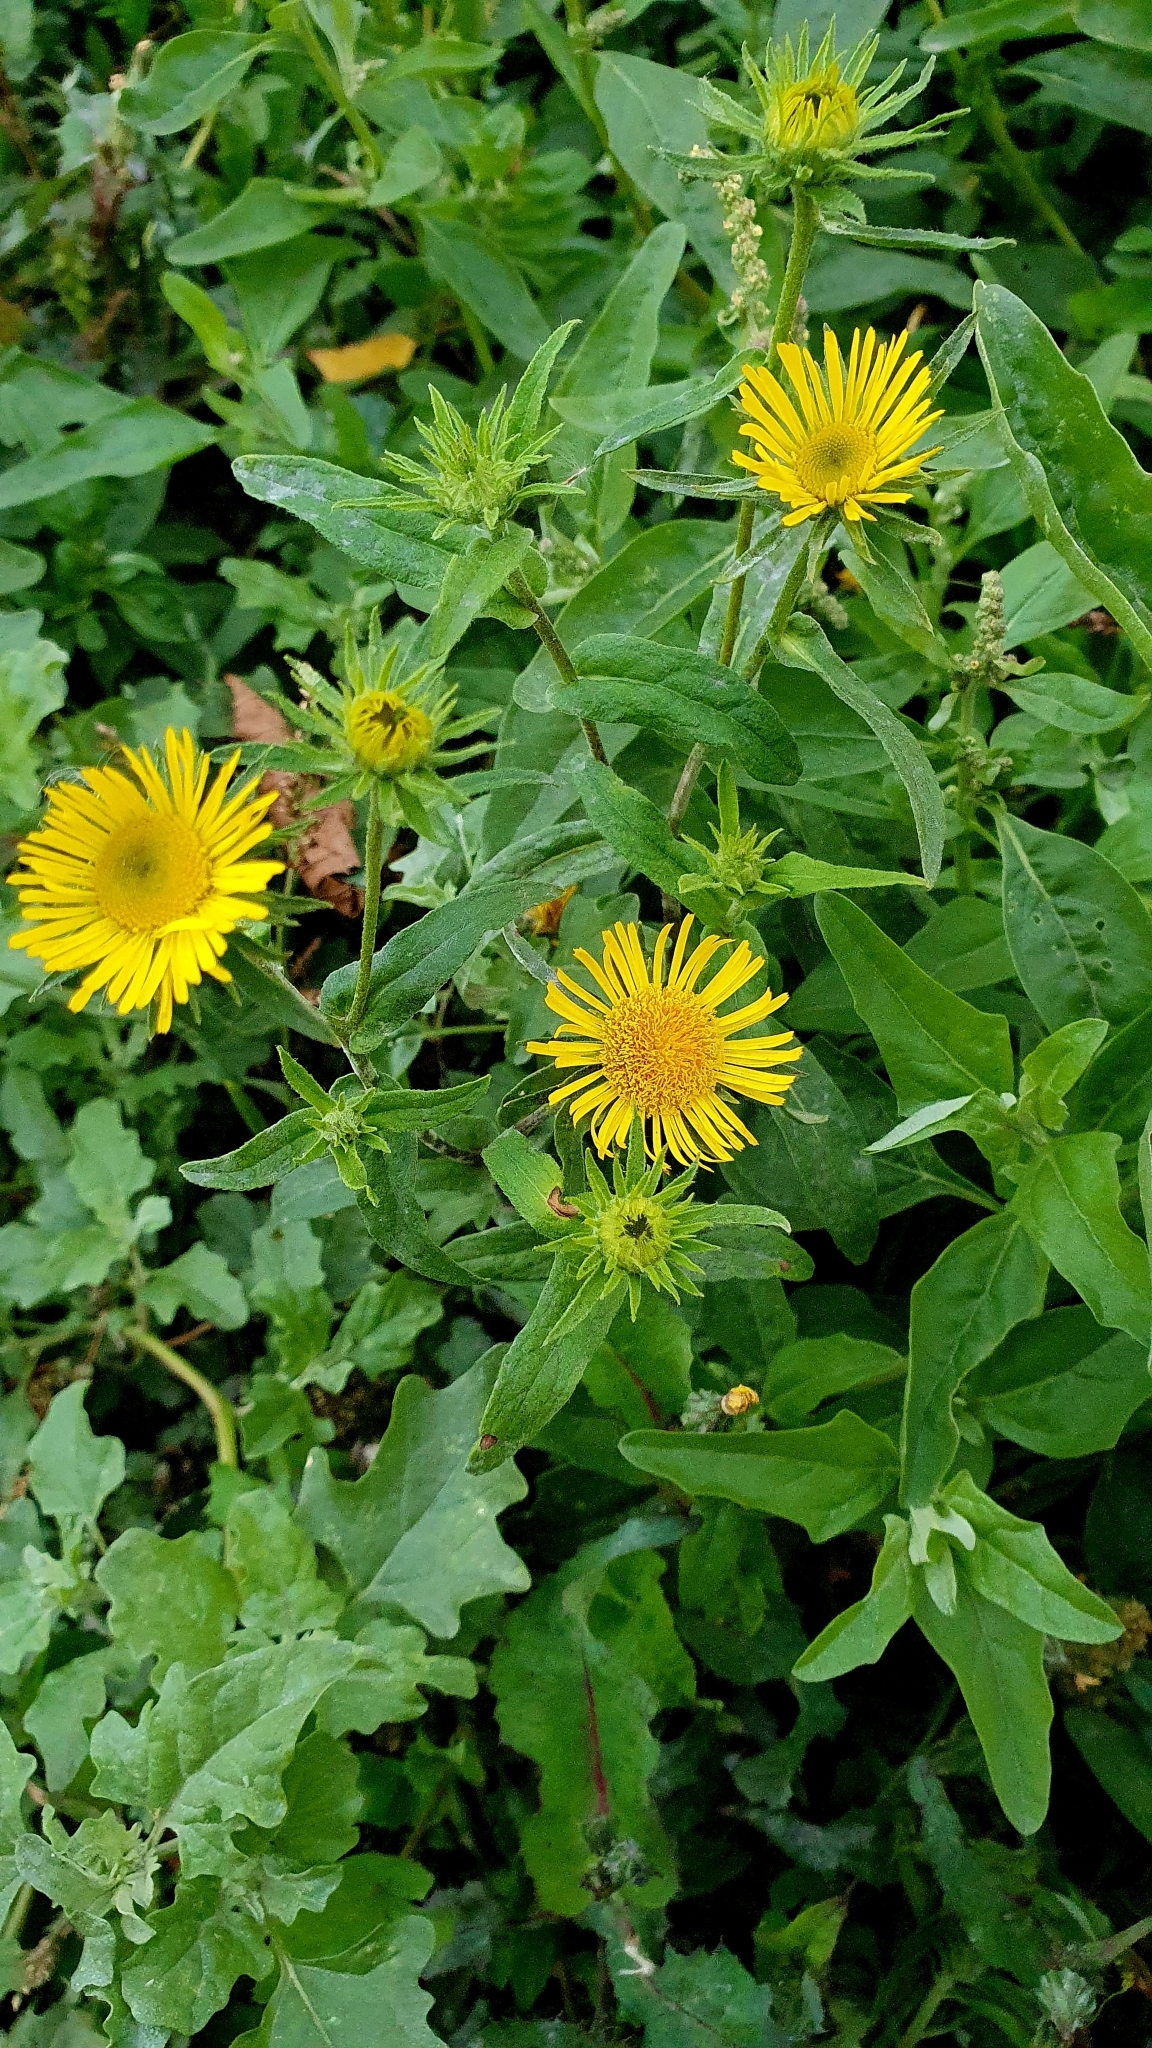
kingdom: Plantae
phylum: Tracheophyta
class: Magnoliopsida
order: Asterales
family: Asteraceae
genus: Pentanema
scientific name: Pentanema britannicum
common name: British elecampane
